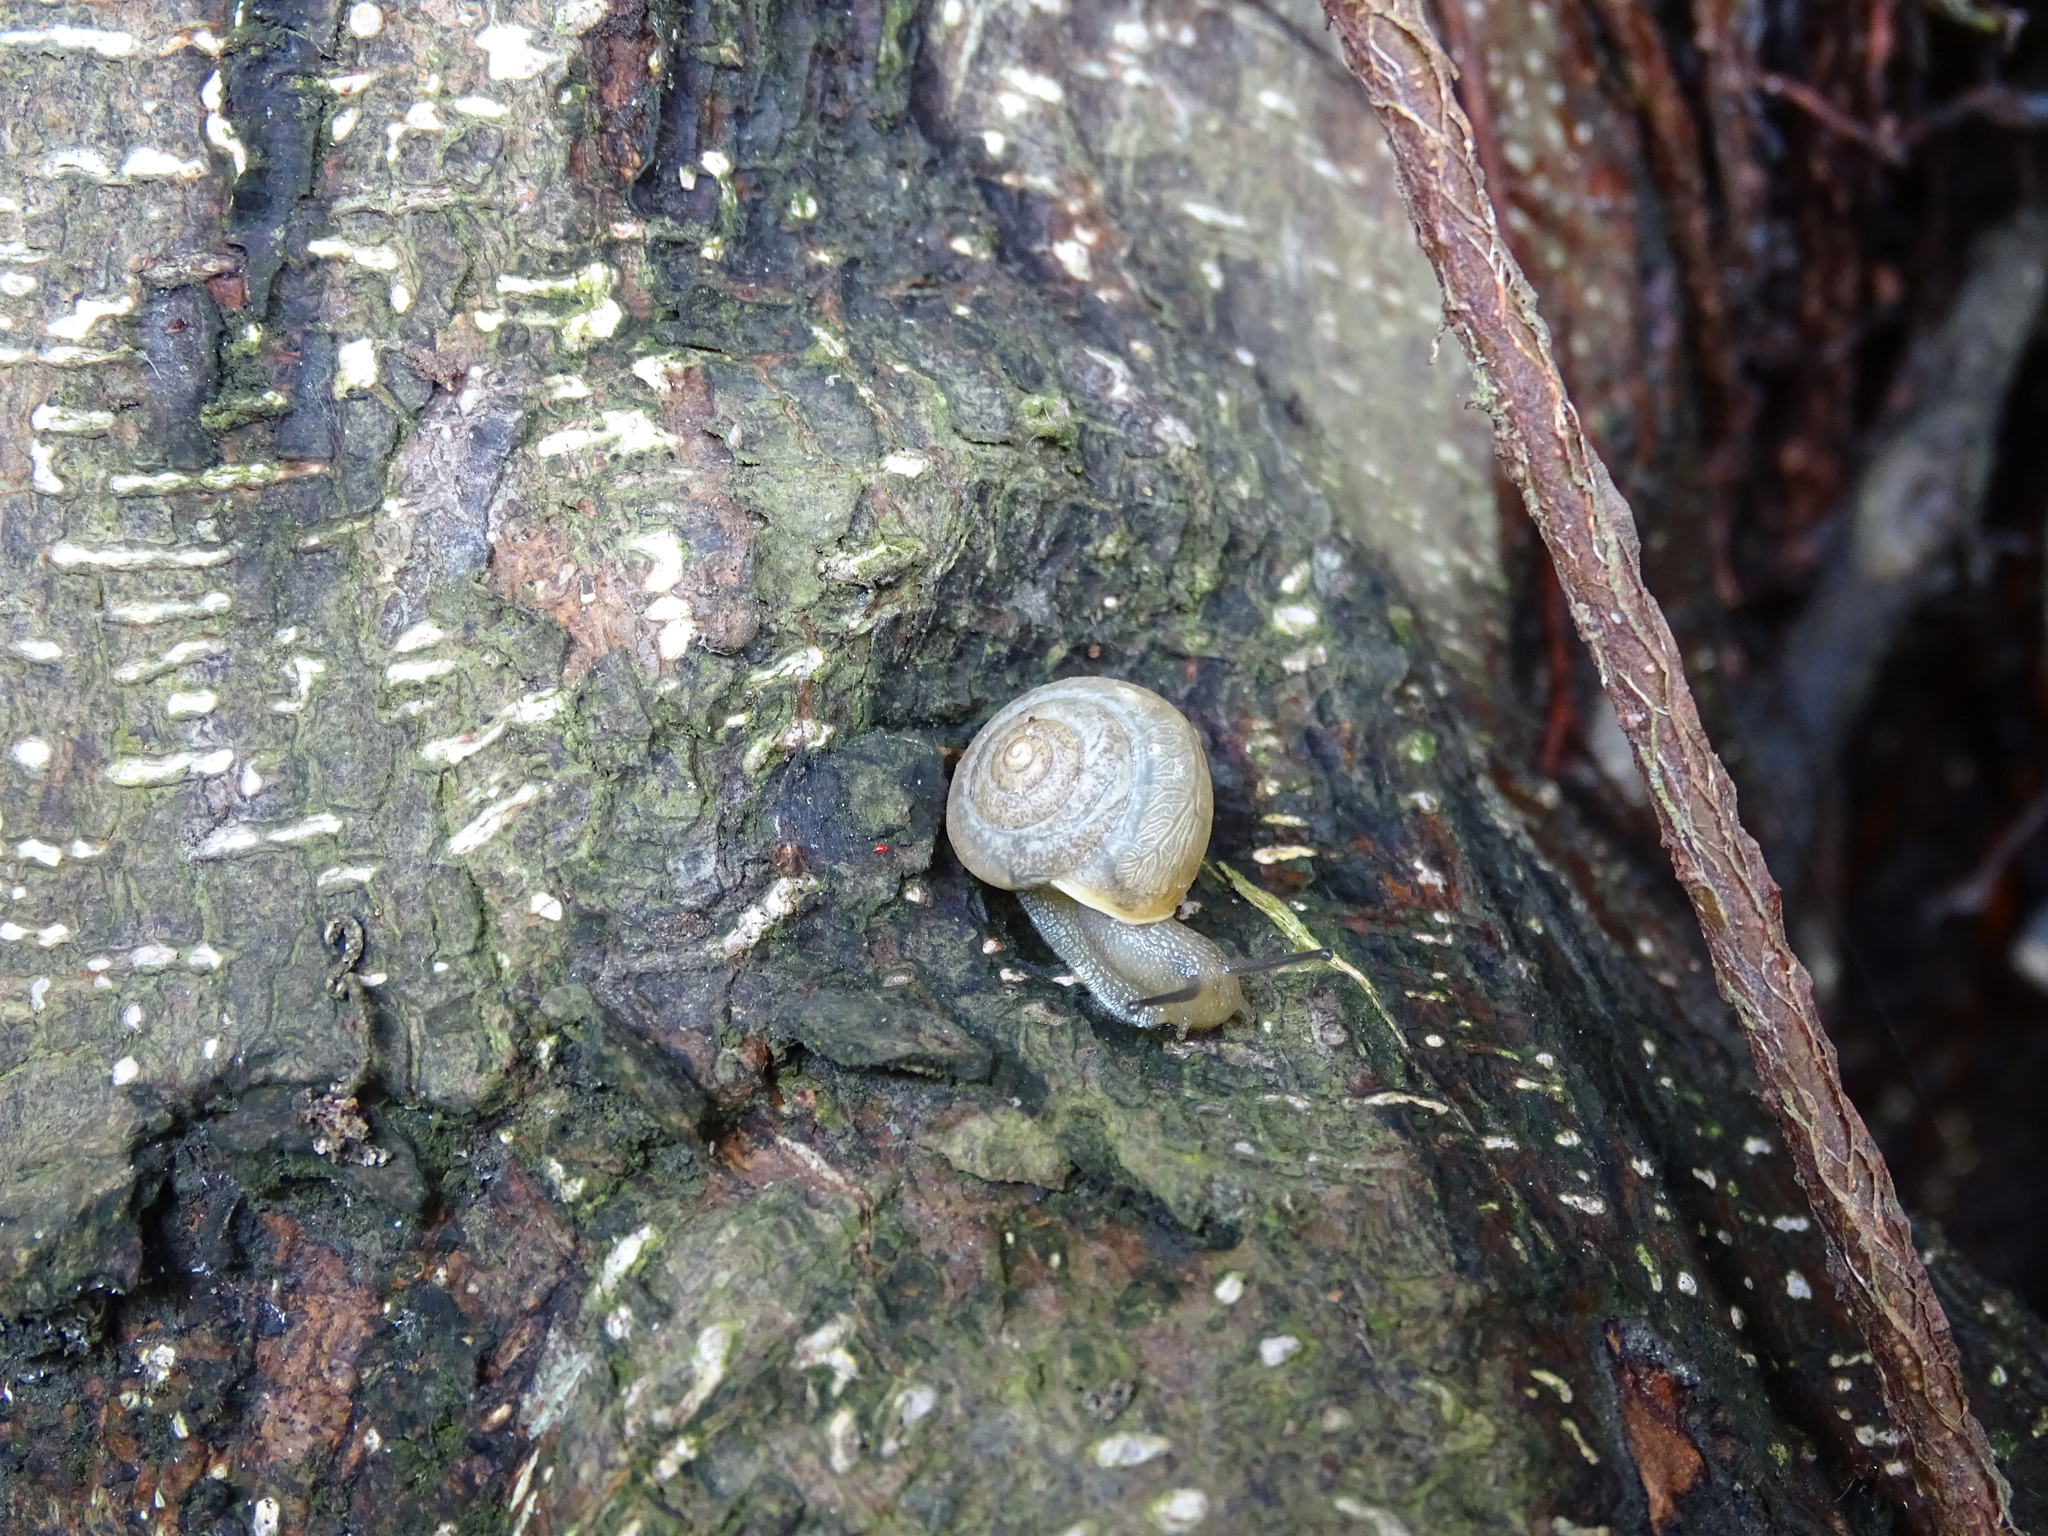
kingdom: Animalia
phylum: Mollusca
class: Gastropoda
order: Stylommatophora
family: Camaenidae
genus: Bradybaena
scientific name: Bradybaena similaris
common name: Asian trampsnail
